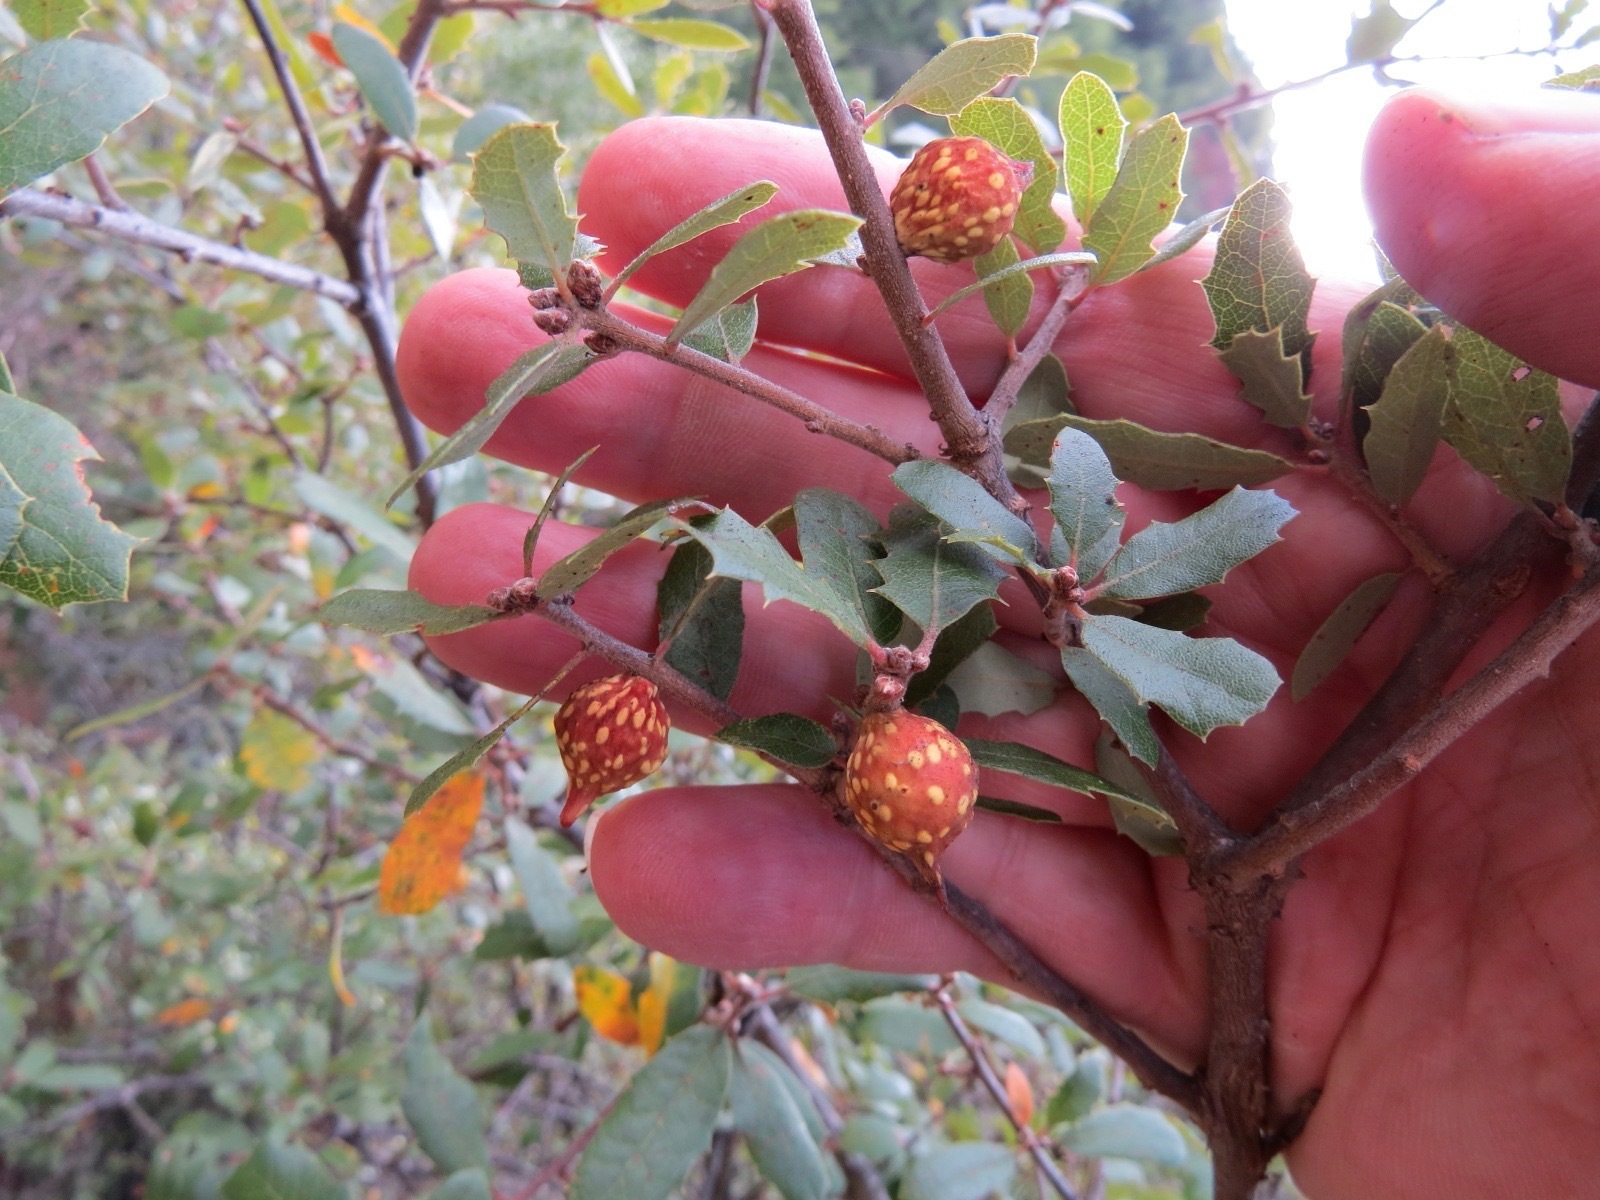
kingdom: Animalia
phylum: Arthropoda
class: Insecta
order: Hymenoptera
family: Cynipidae
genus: Burnettweldia
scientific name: Burnettweldia
